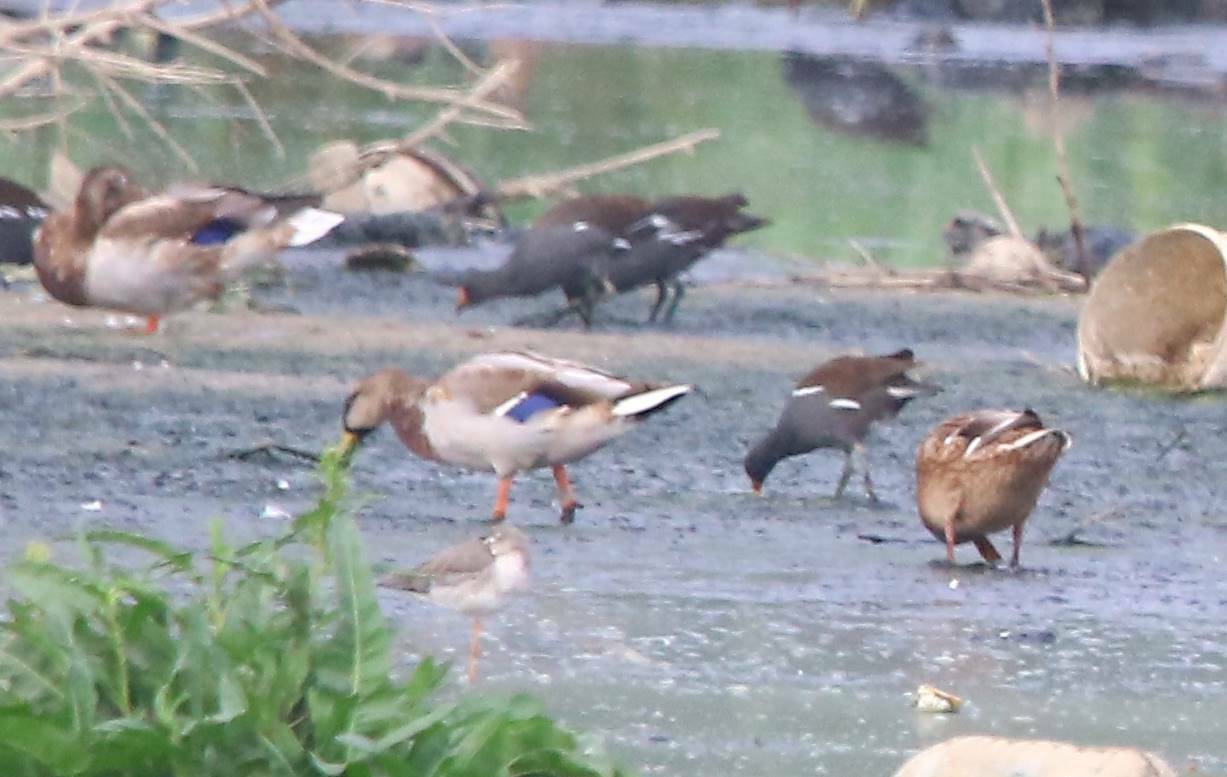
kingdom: Animalia
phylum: Chordata
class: Aves
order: Gruiformes
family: Rallidae
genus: Gallinula
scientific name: Gallinula chloropus
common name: Common moorhen
